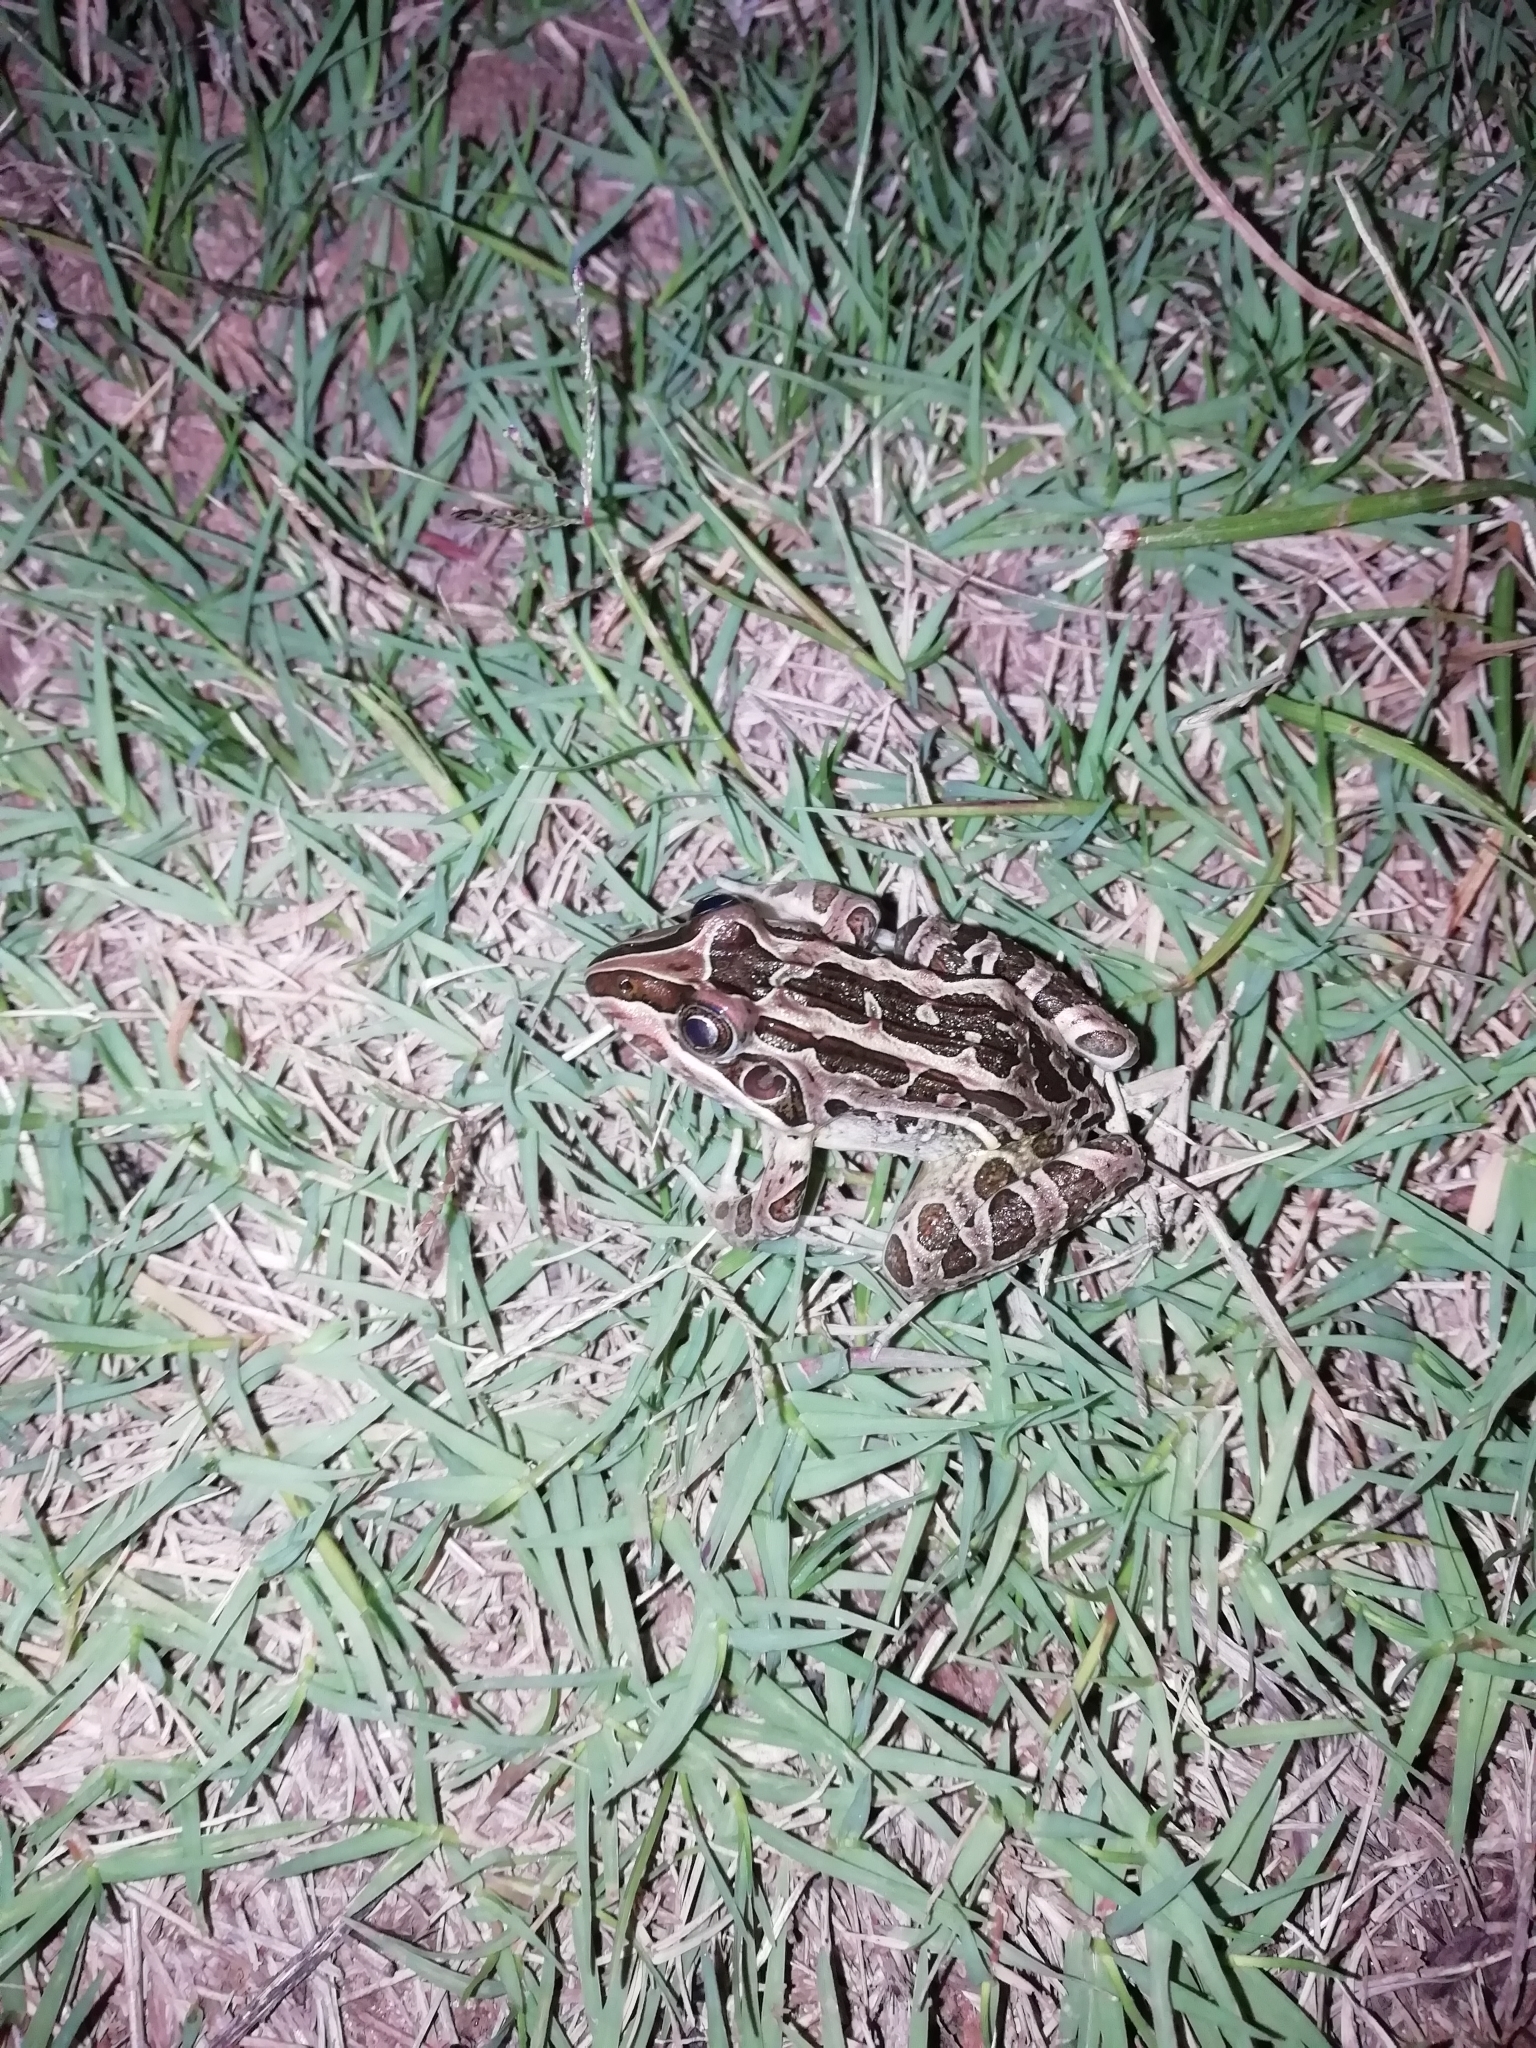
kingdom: Animalia
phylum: Chordata
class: Amphibia
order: Anura
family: Leptodactylidae
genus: Leptodactylus
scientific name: Leptodactylus luctator
